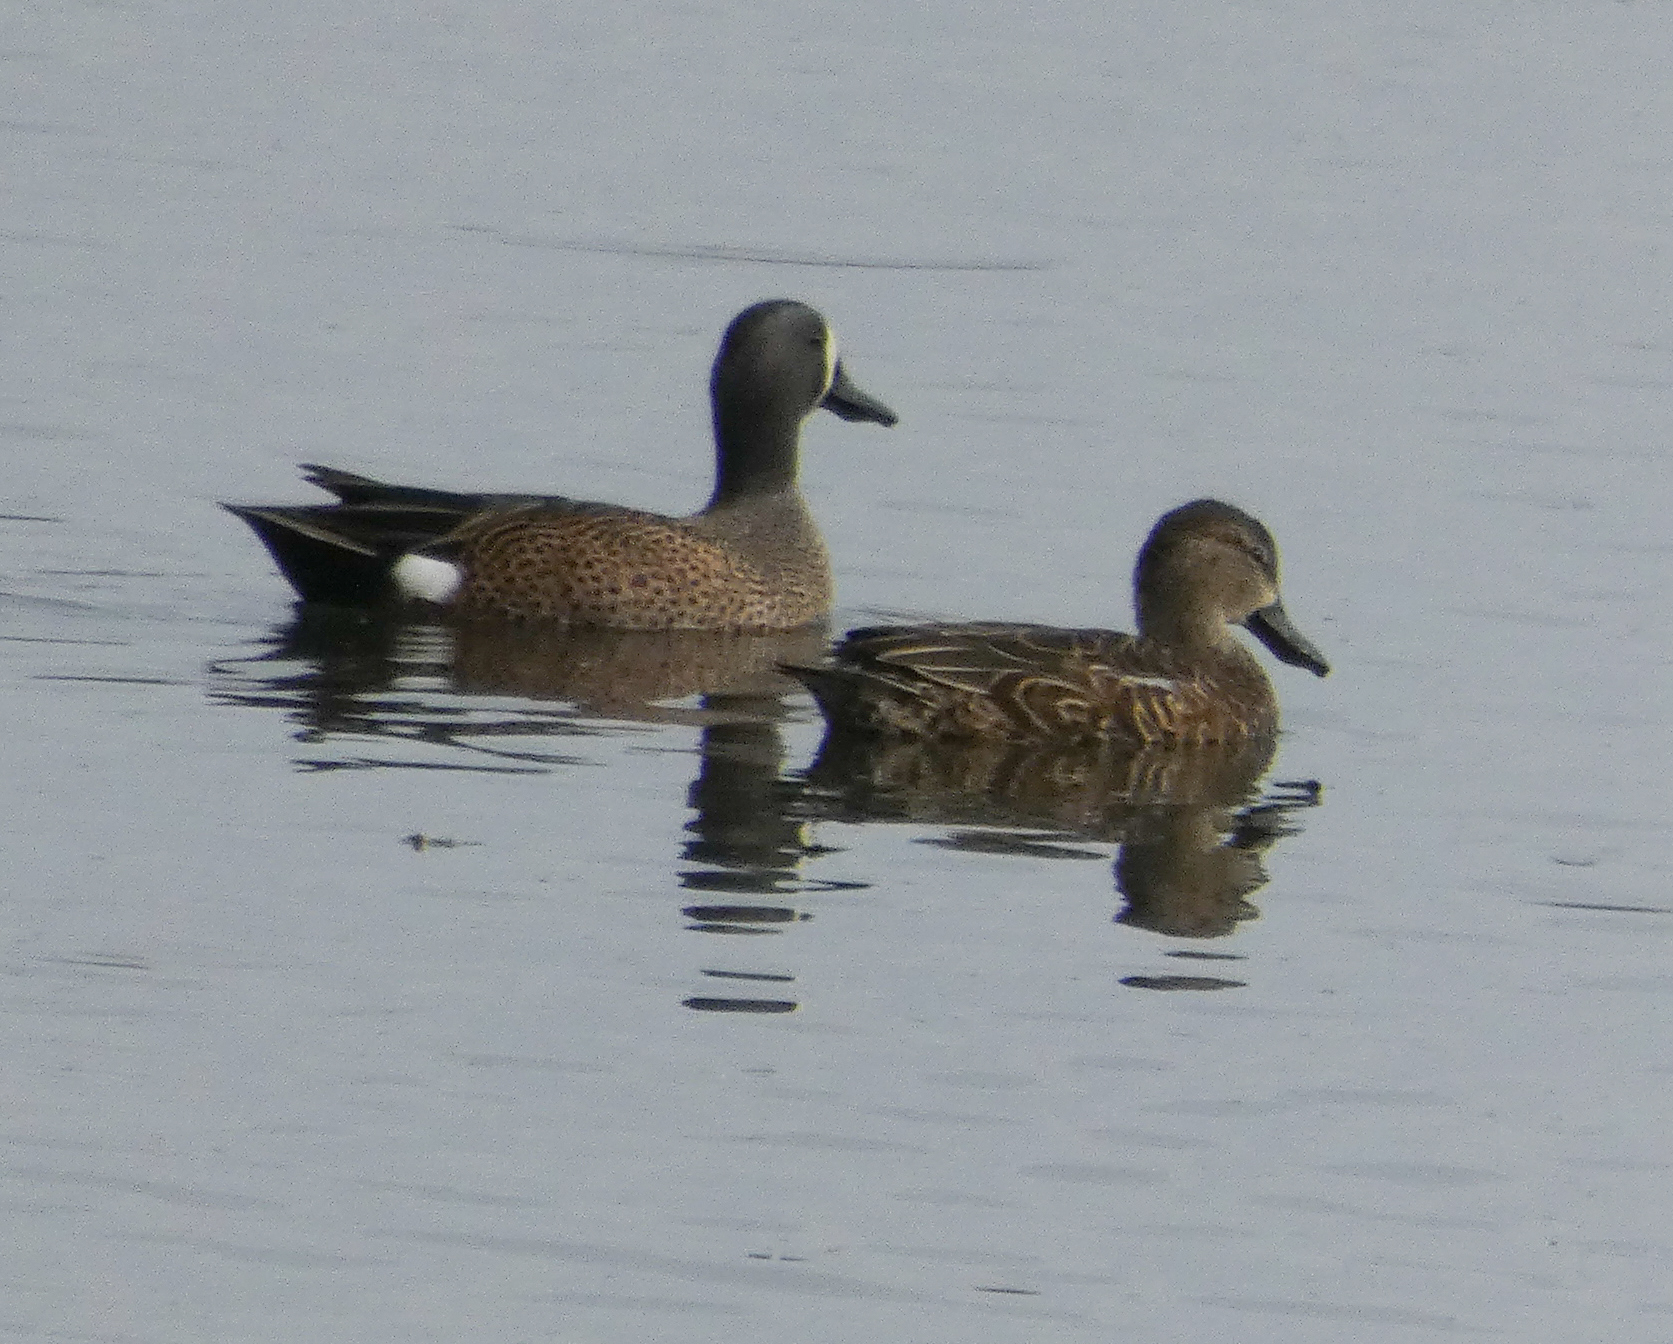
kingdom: Animalia
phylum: Chordata
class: Aves
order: Anseriformes
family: Anatidae
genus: Spatula
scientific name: Spatula discors
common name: Blue-winged teal
